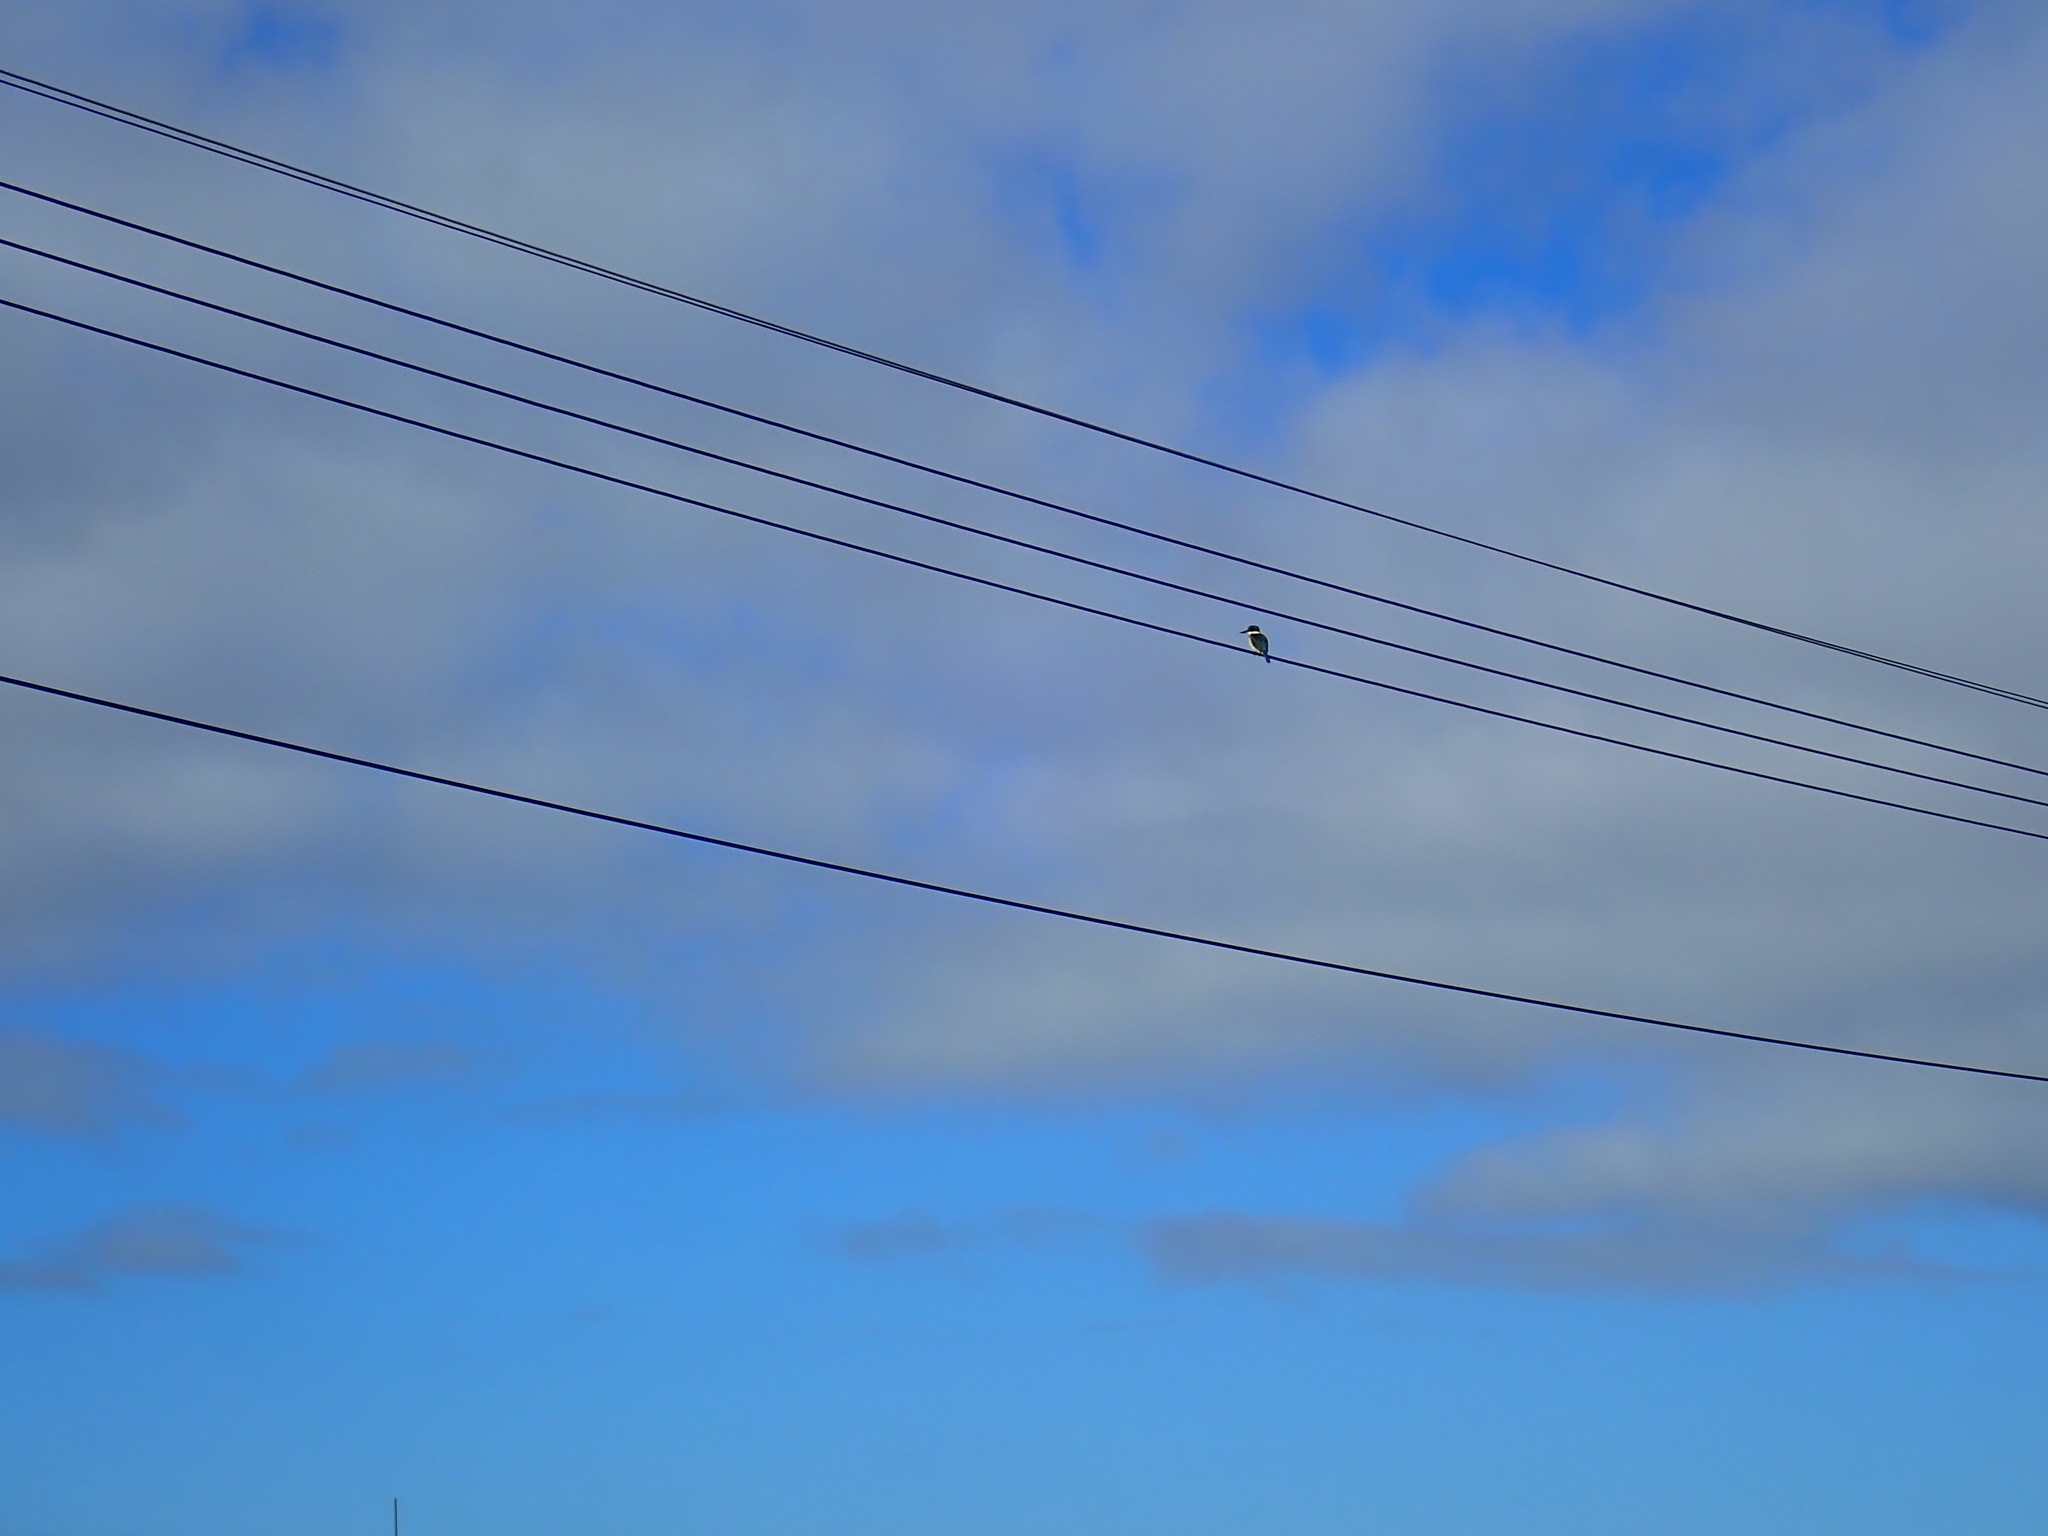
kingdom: Animalia
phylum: Chordata
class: Aves
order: Coraciiformes
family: Alcedinidae
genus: Todiramphus
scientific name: Todiramphus sanctus
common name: Sacred kingfisher
